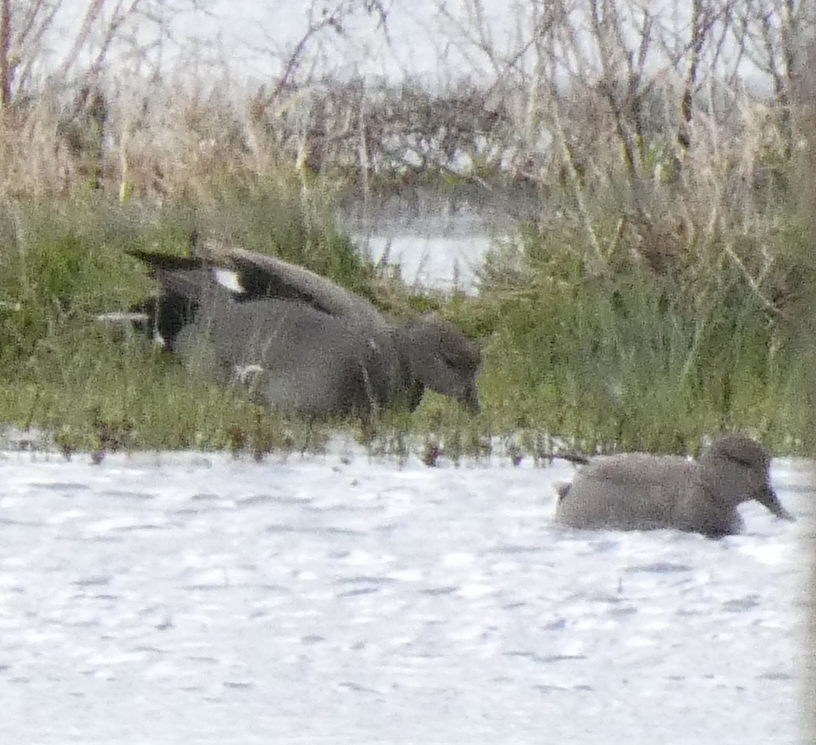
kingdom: Animalia
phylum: Chordata
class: Aves
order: Anseriformes
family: Anatidae
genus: Mareca
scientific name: Mareca strepera
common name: Gadwall
